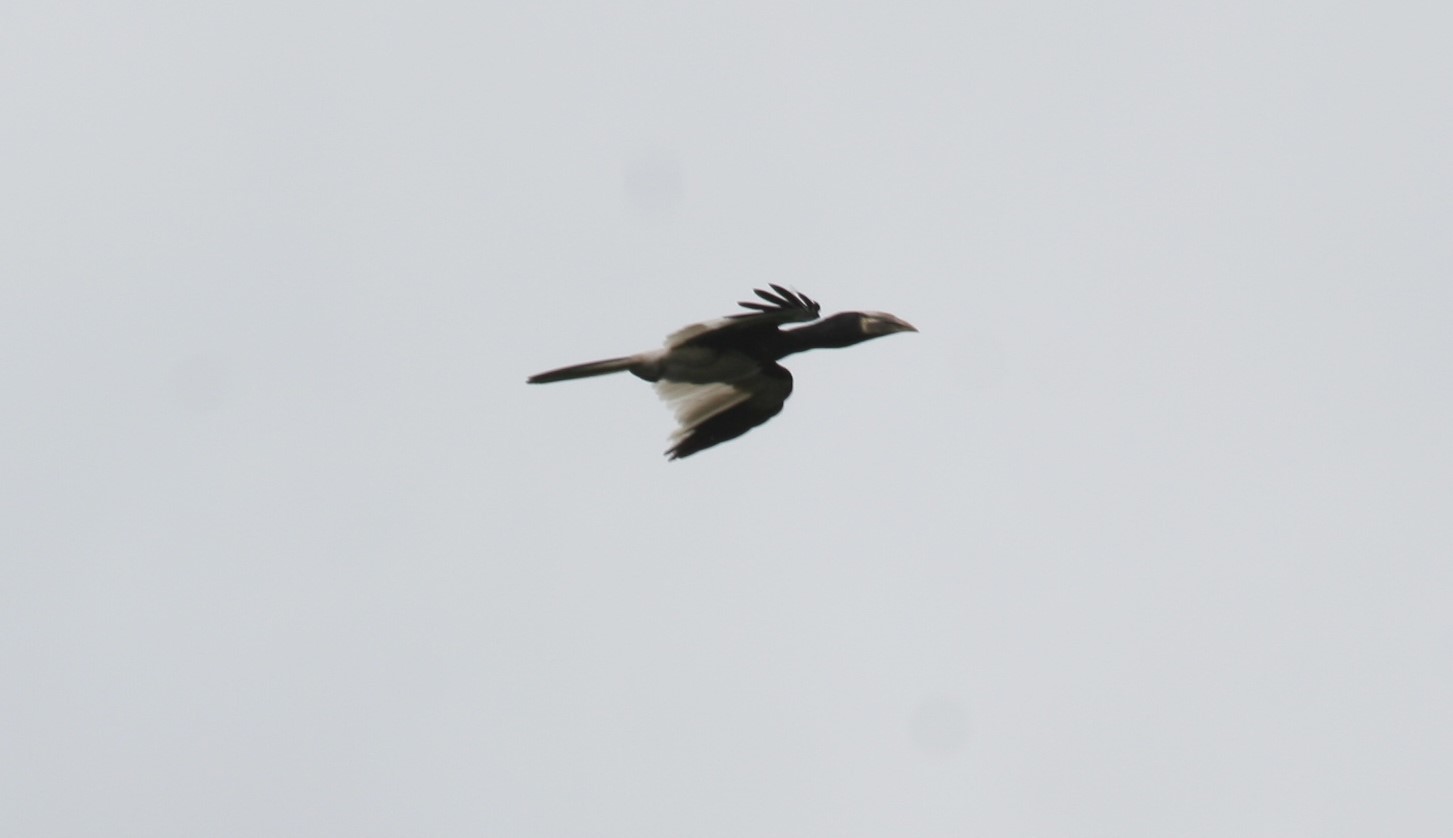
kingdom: Animalia
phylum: Chordata
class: Aves
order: Bucerotiformes
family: Bucerotidae
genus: Bycanistes
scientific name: Bycanistes fistulator
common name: Piping hornbill
